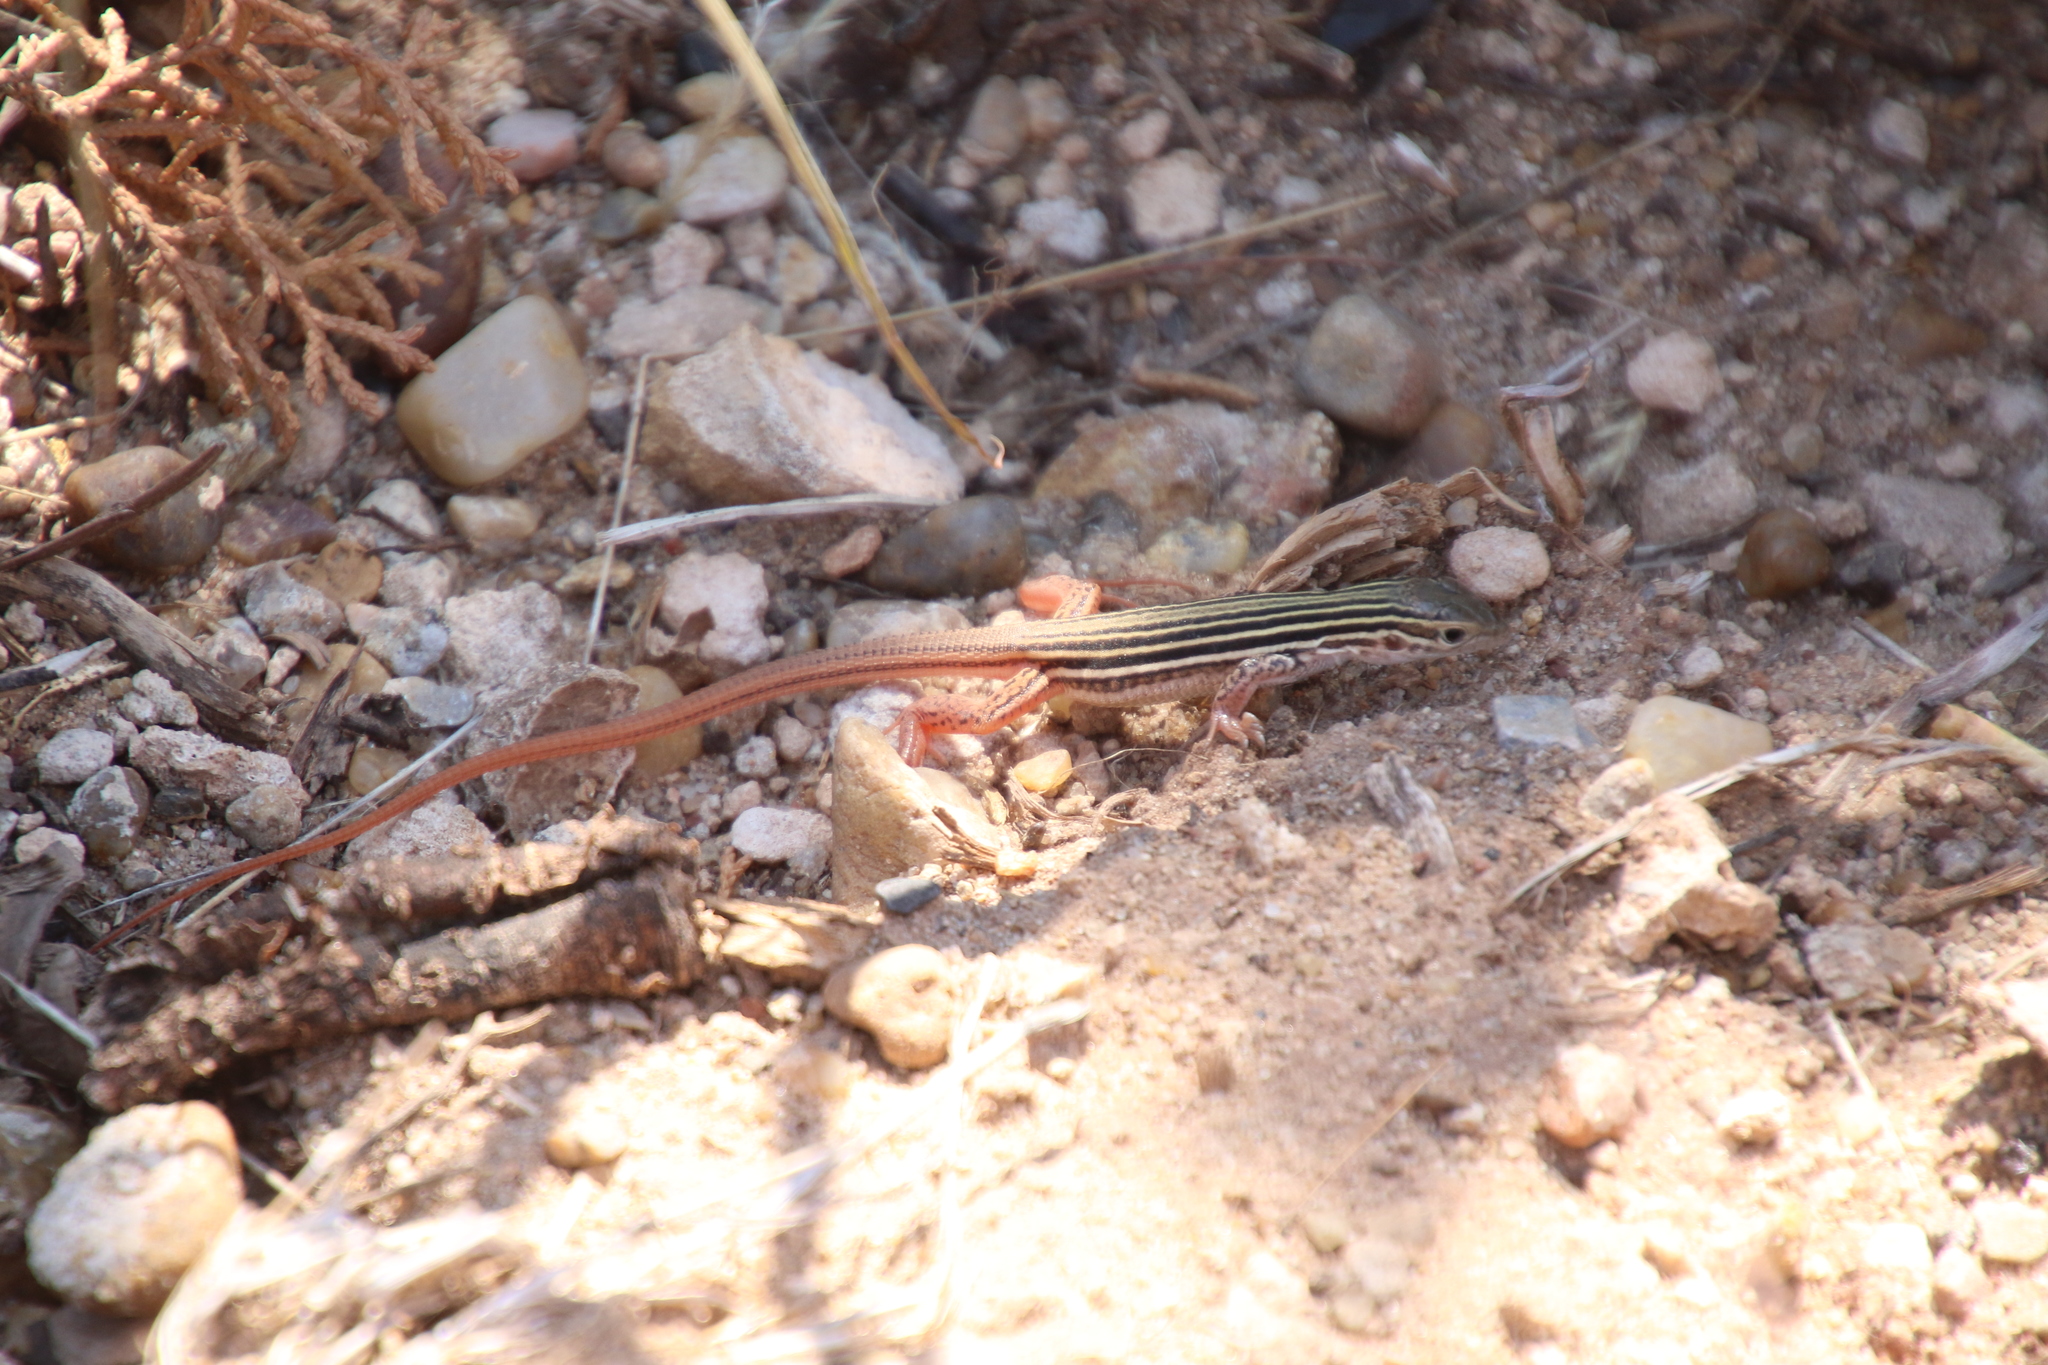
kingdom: Animalia
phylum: Chordata
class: Squamata
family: Teiidae
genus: Aspidoscelis
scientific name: Aspidoscelis gularis
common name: Eastern spotted whiptail
